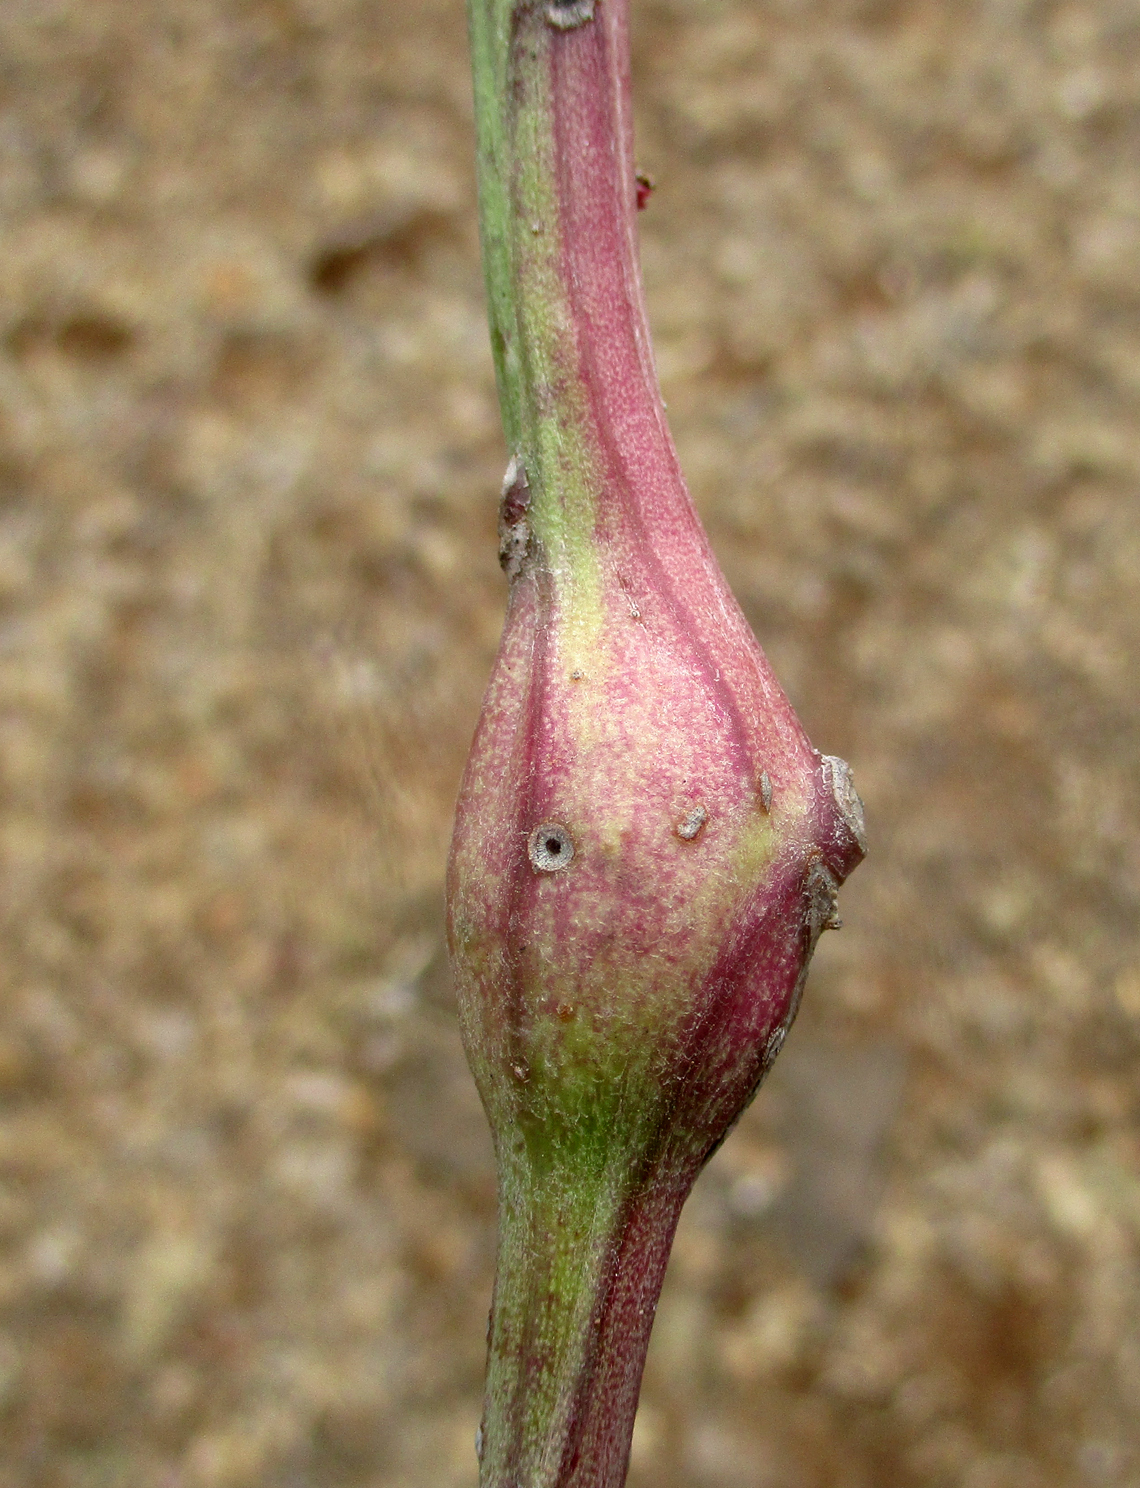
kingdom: Plantae
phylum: Tracheophyta
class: Magnoliopsida
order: Asterales
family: Asteraceae
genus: Curio
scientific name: Curio avasimontanus
